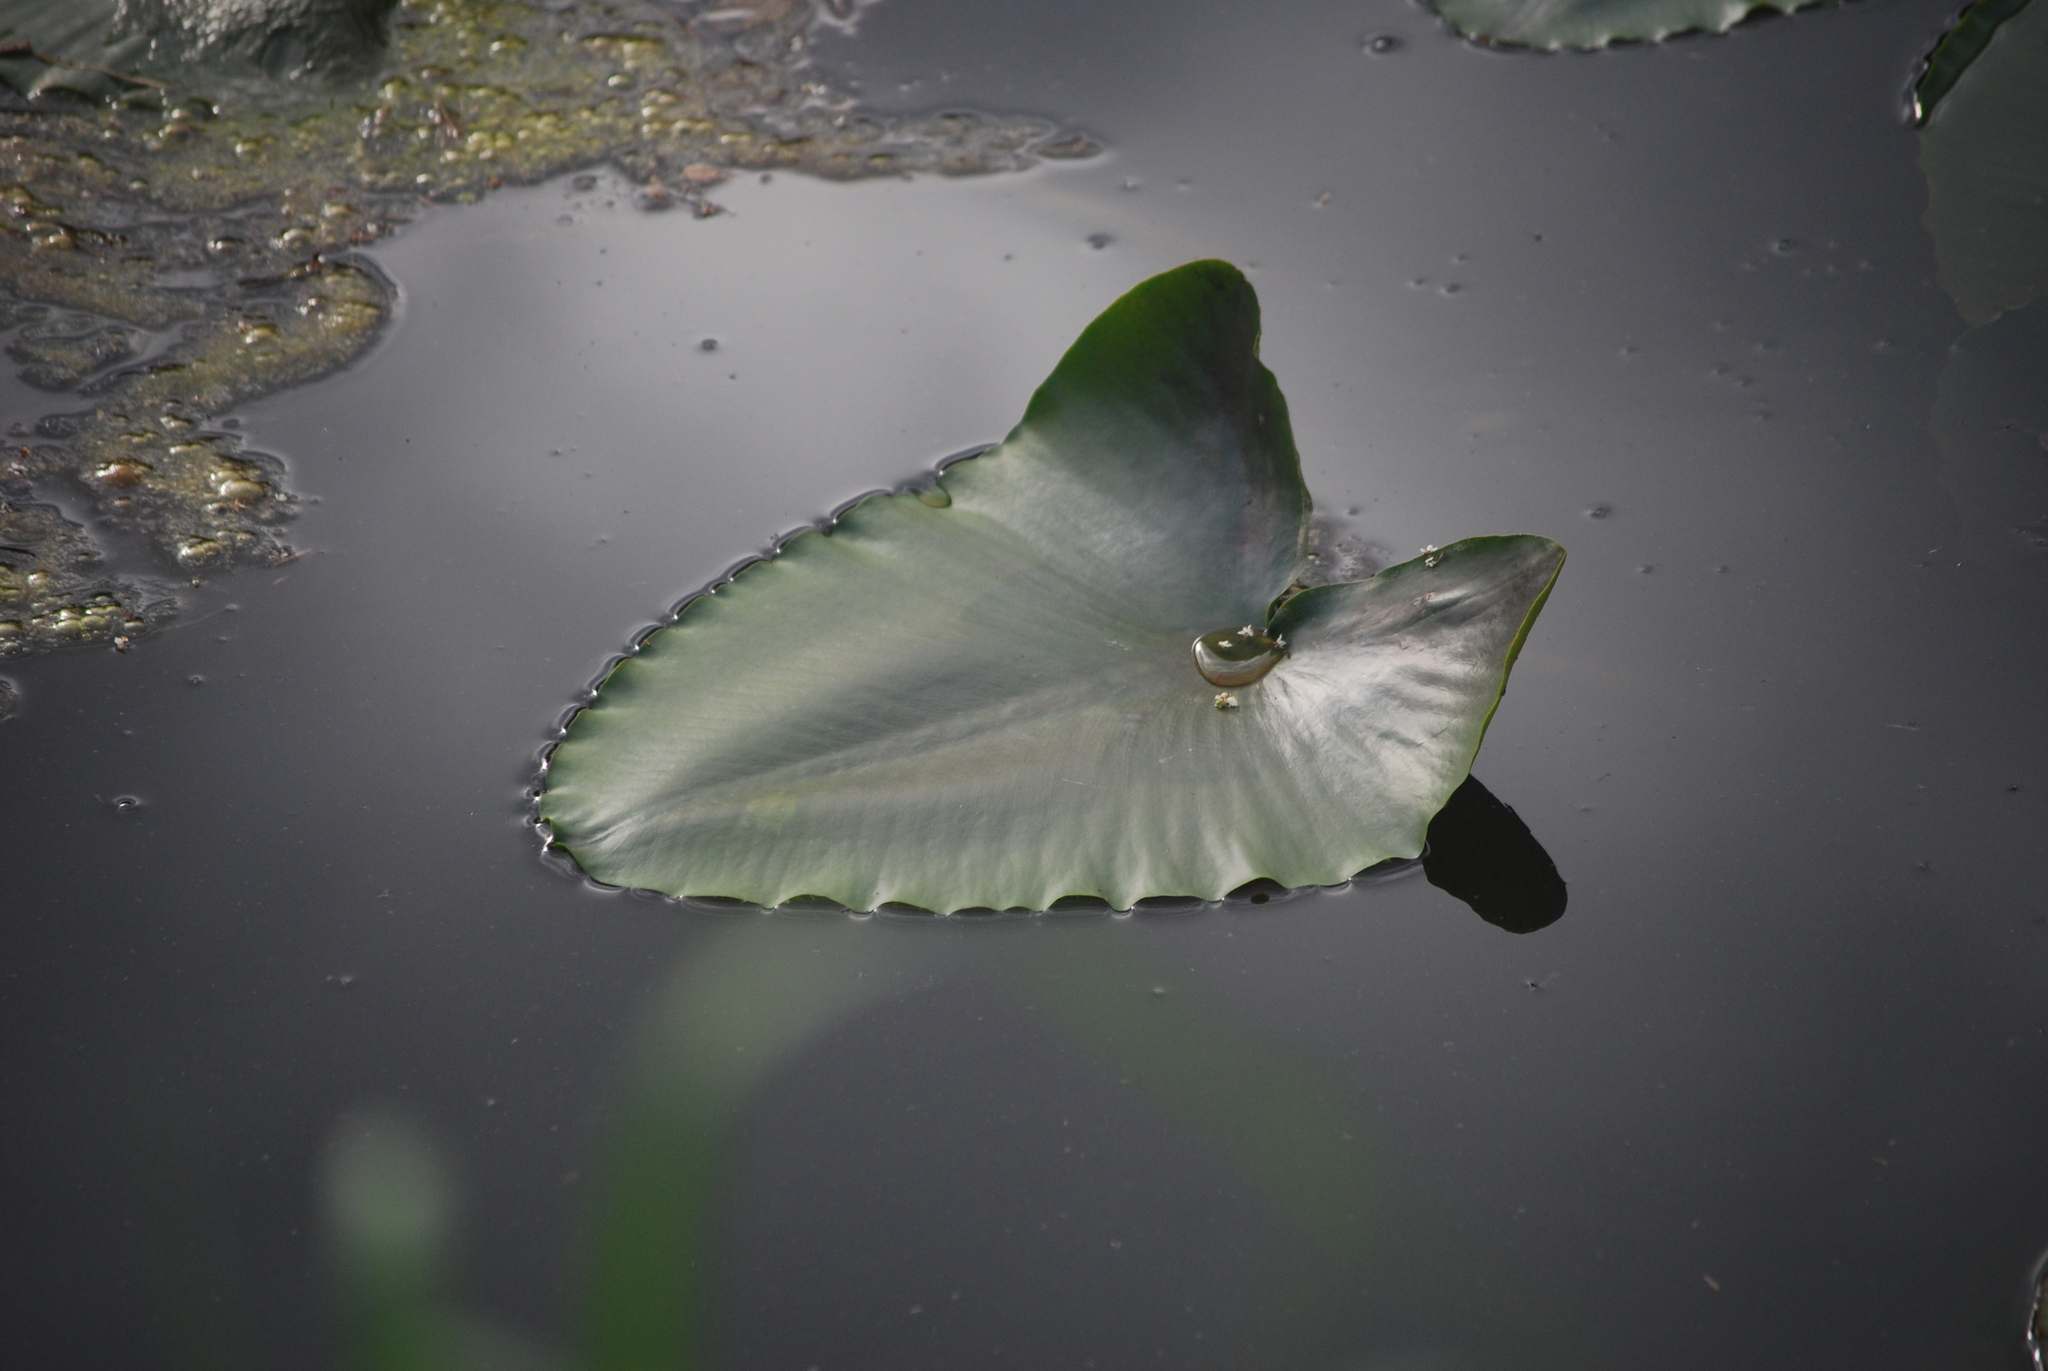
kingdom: Plantae
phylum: Tracheophyta
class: Magnoliopsida
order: Nymphaeales
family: Nymphaeaceae
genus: Nuphar
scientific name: Nuphar polysepala
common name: Rocky mountain cow-lily
